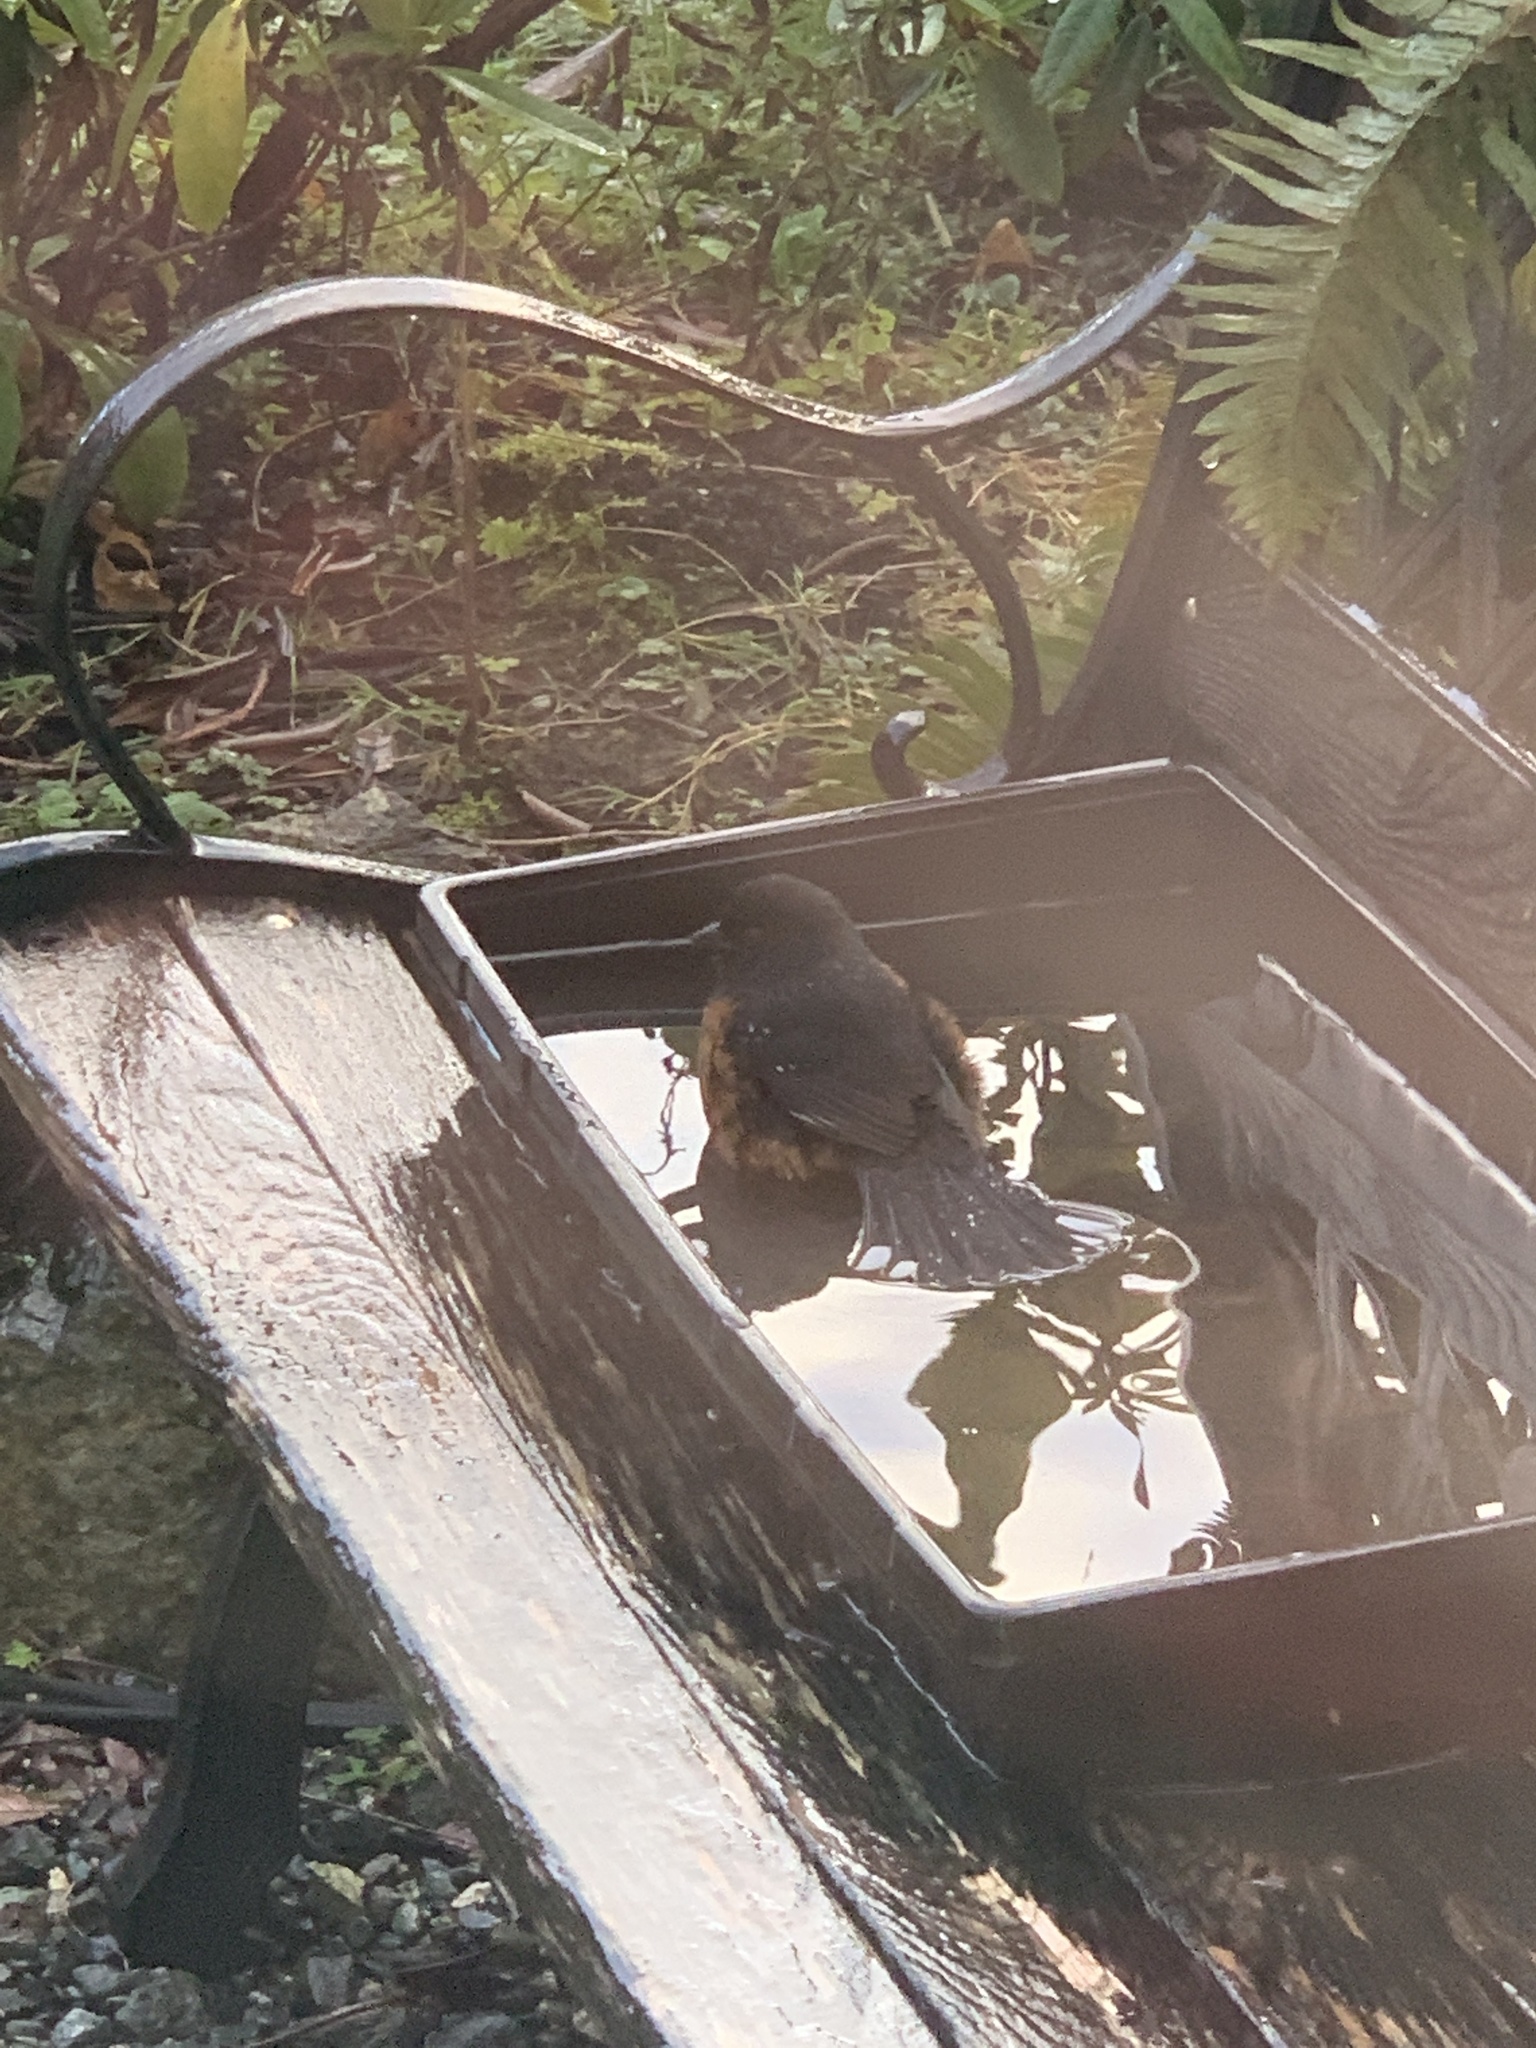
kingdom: Animalia
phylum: Chordata
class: Aves
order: Passeriformes
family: Passerellidae
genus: Pipilo
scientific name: Pipilo maculatus
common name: Spotted towhee
